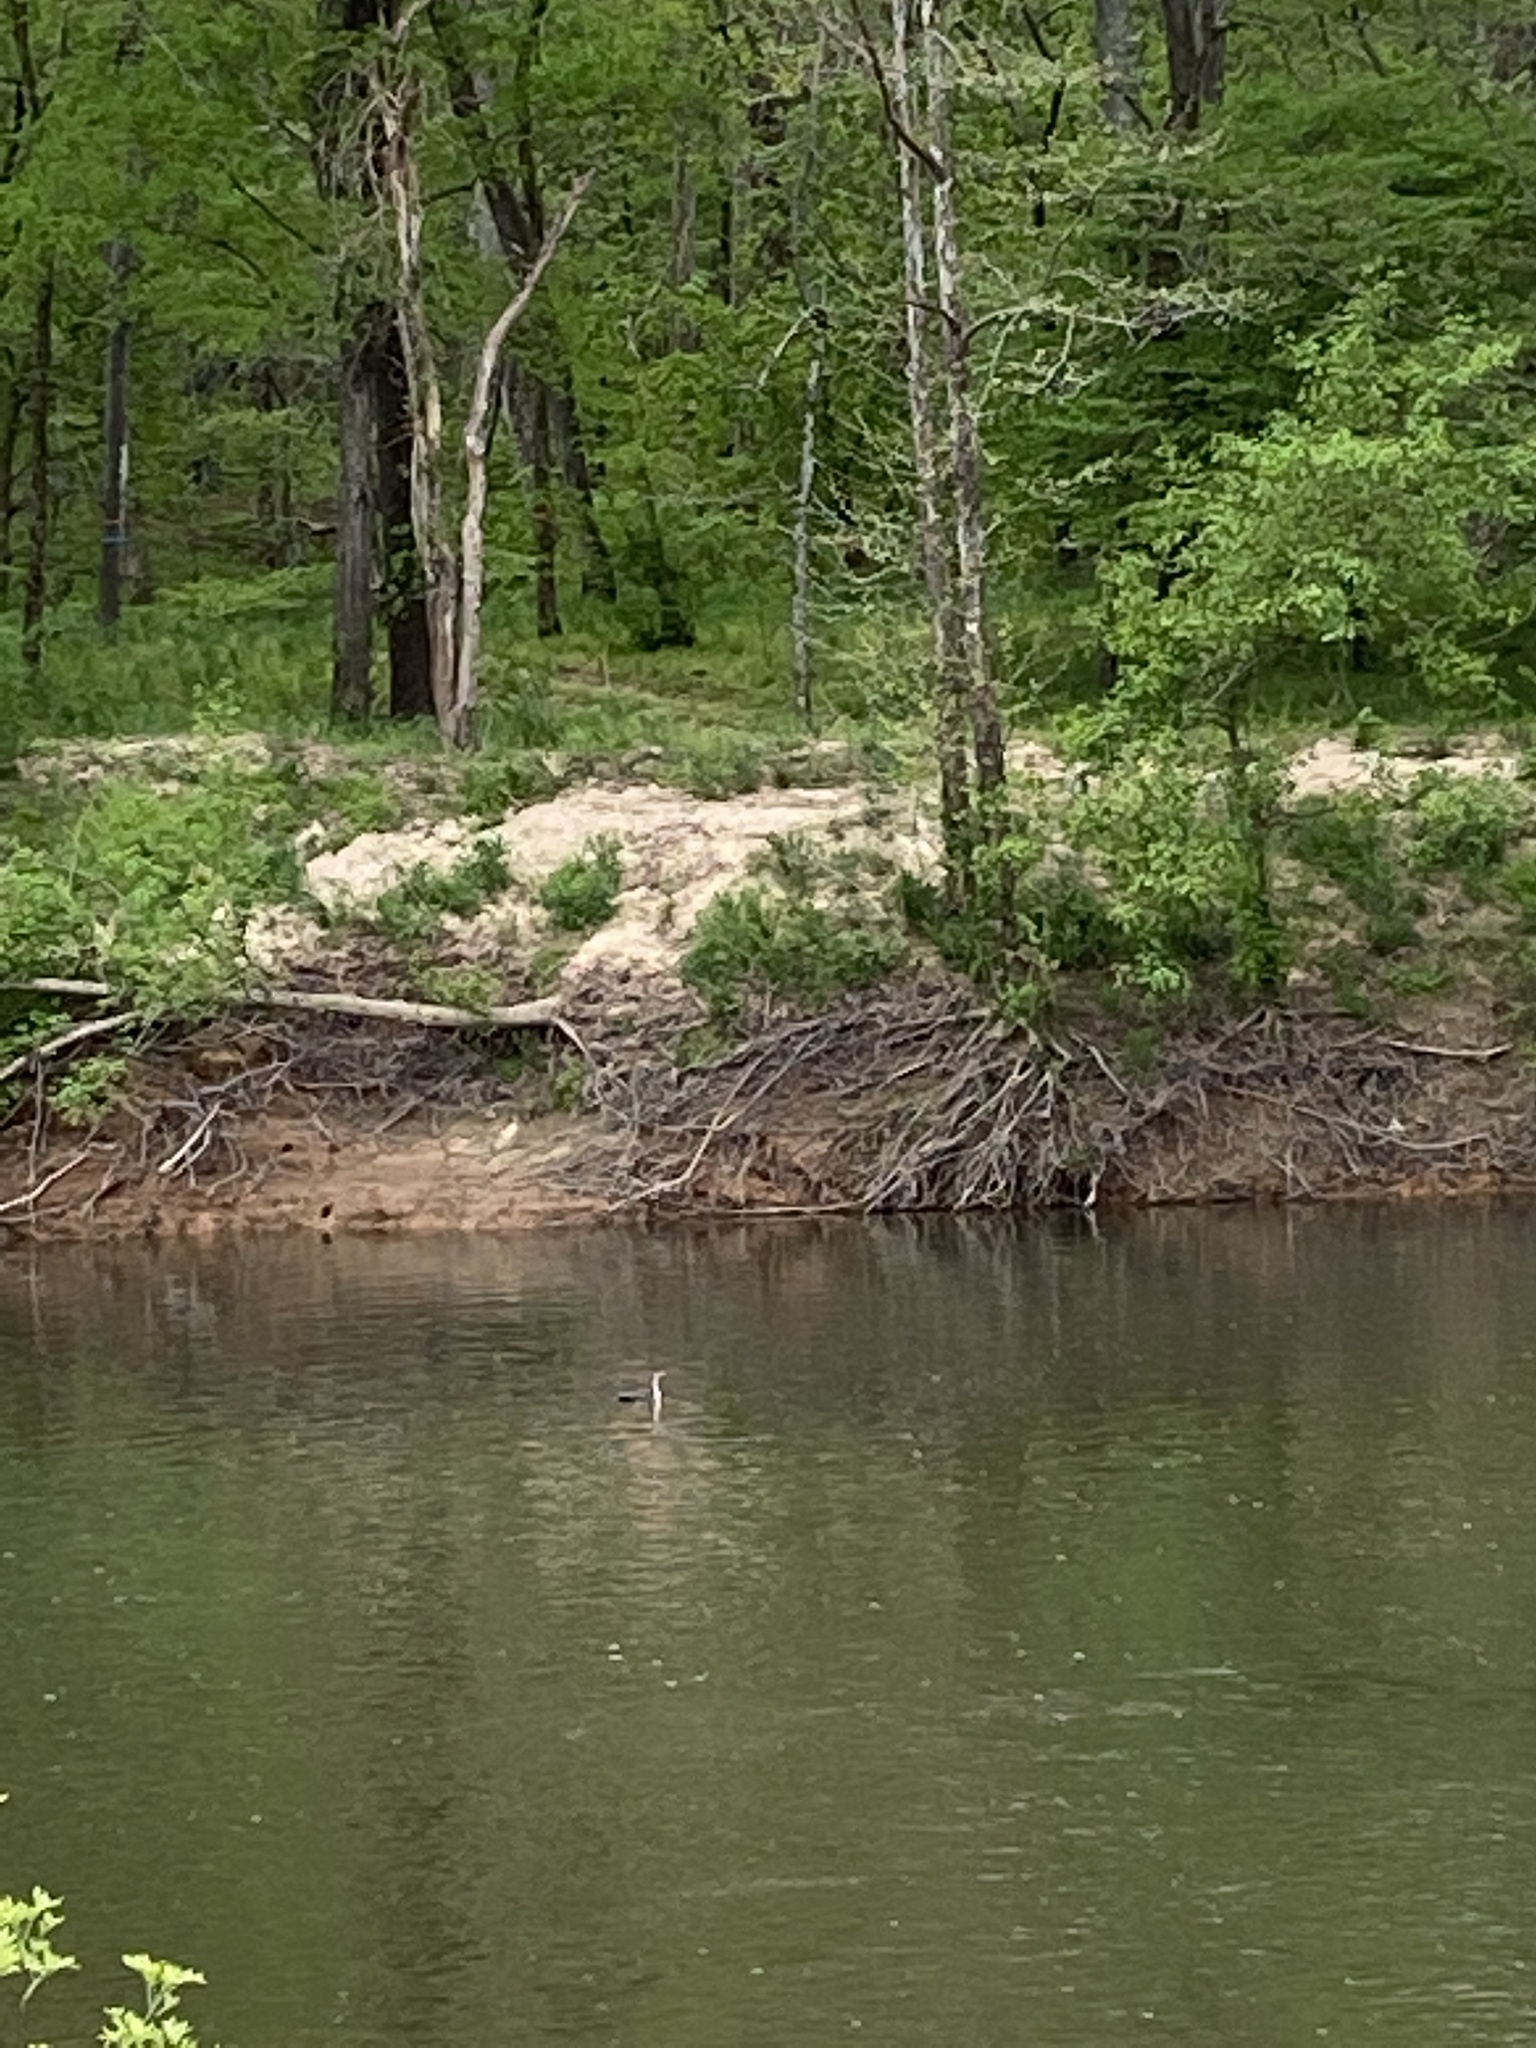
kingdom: Animalia
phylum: Chordata
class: Aves
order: Suliformes
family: Phalacrocoracidae
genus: Phalacrocorax
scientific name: Phalacrocorax auritus
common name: Double-crested cormorant
